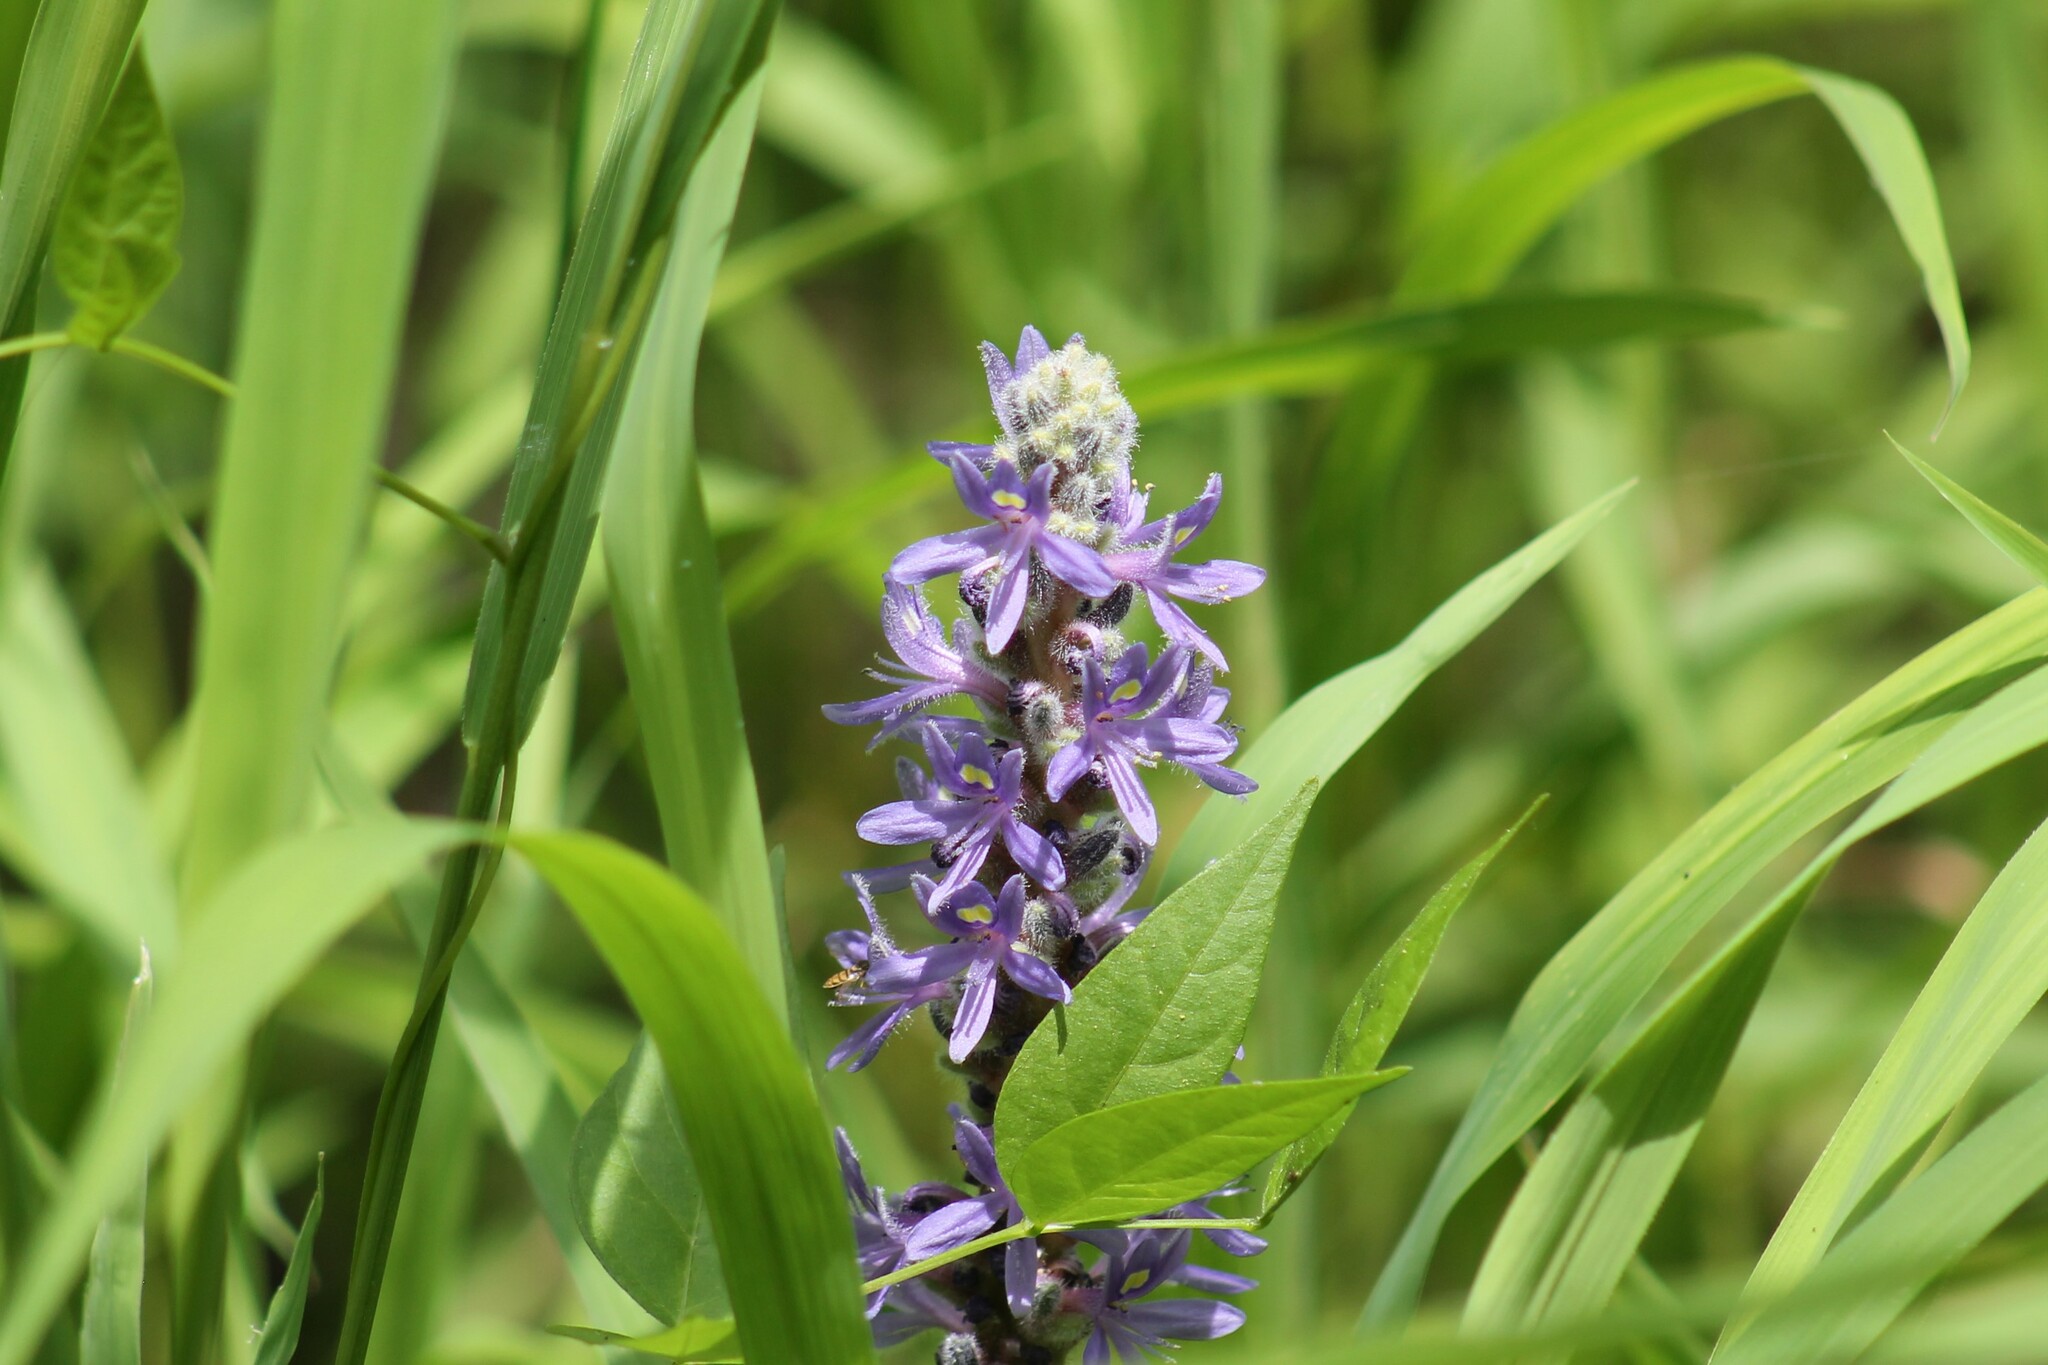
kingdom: Plantae
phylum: Tracheophyta
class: Liliopsida
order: Commelinales
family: Pontederiaceae
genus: Pontederia
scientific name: Pontederia cordata
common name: Pickerelweed
